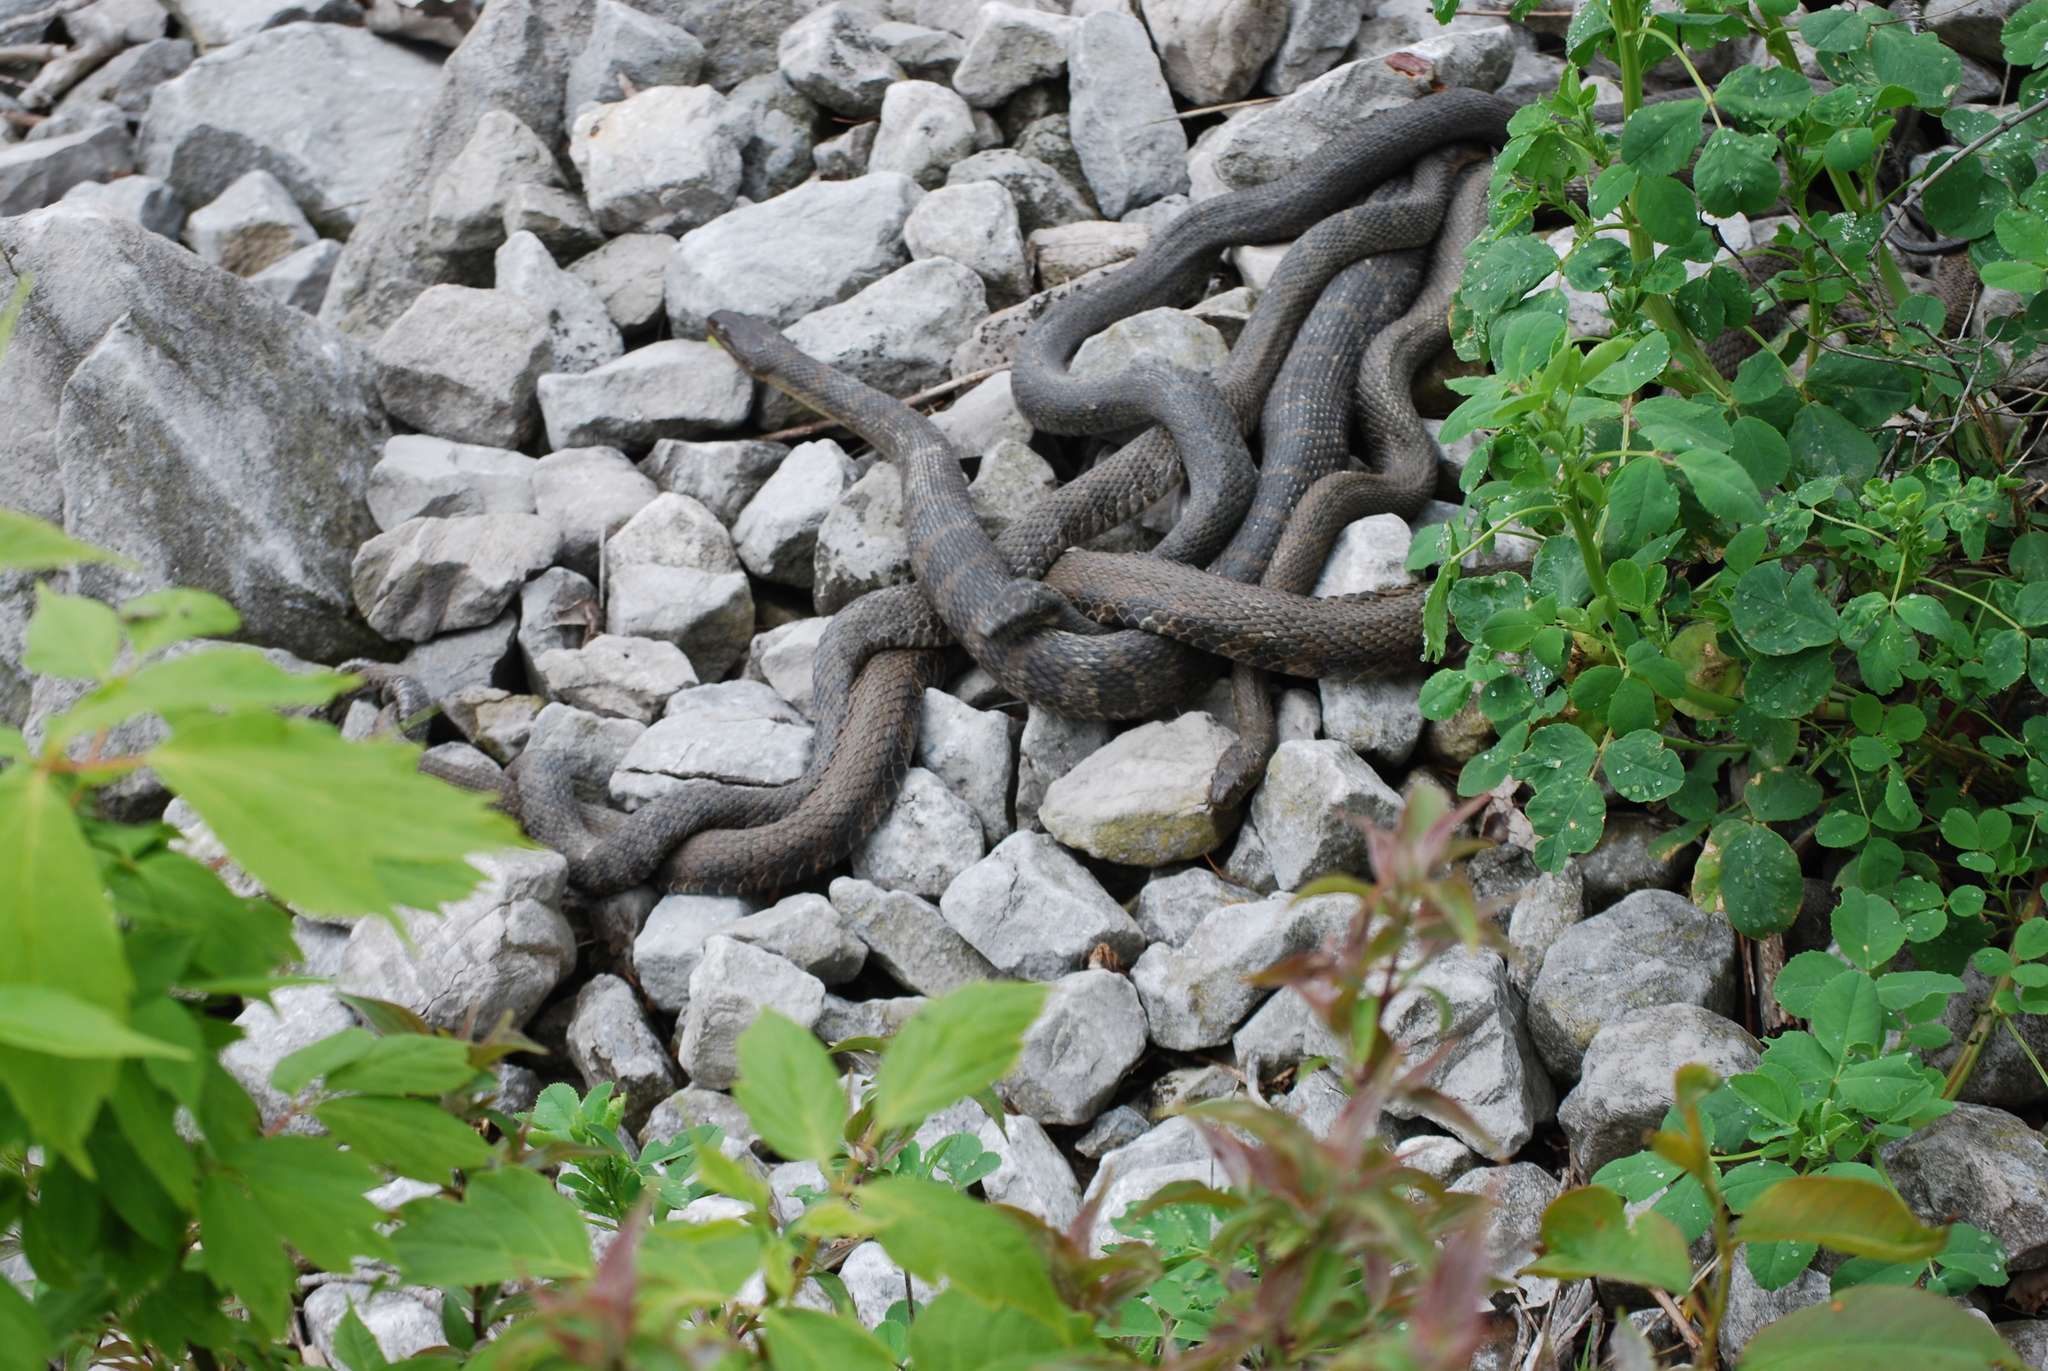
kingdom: Animalia
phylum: Chordata
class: Squamata
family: Colubridae
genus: Nerodia
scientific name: Nerodia sipedon
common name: Northern water snake
